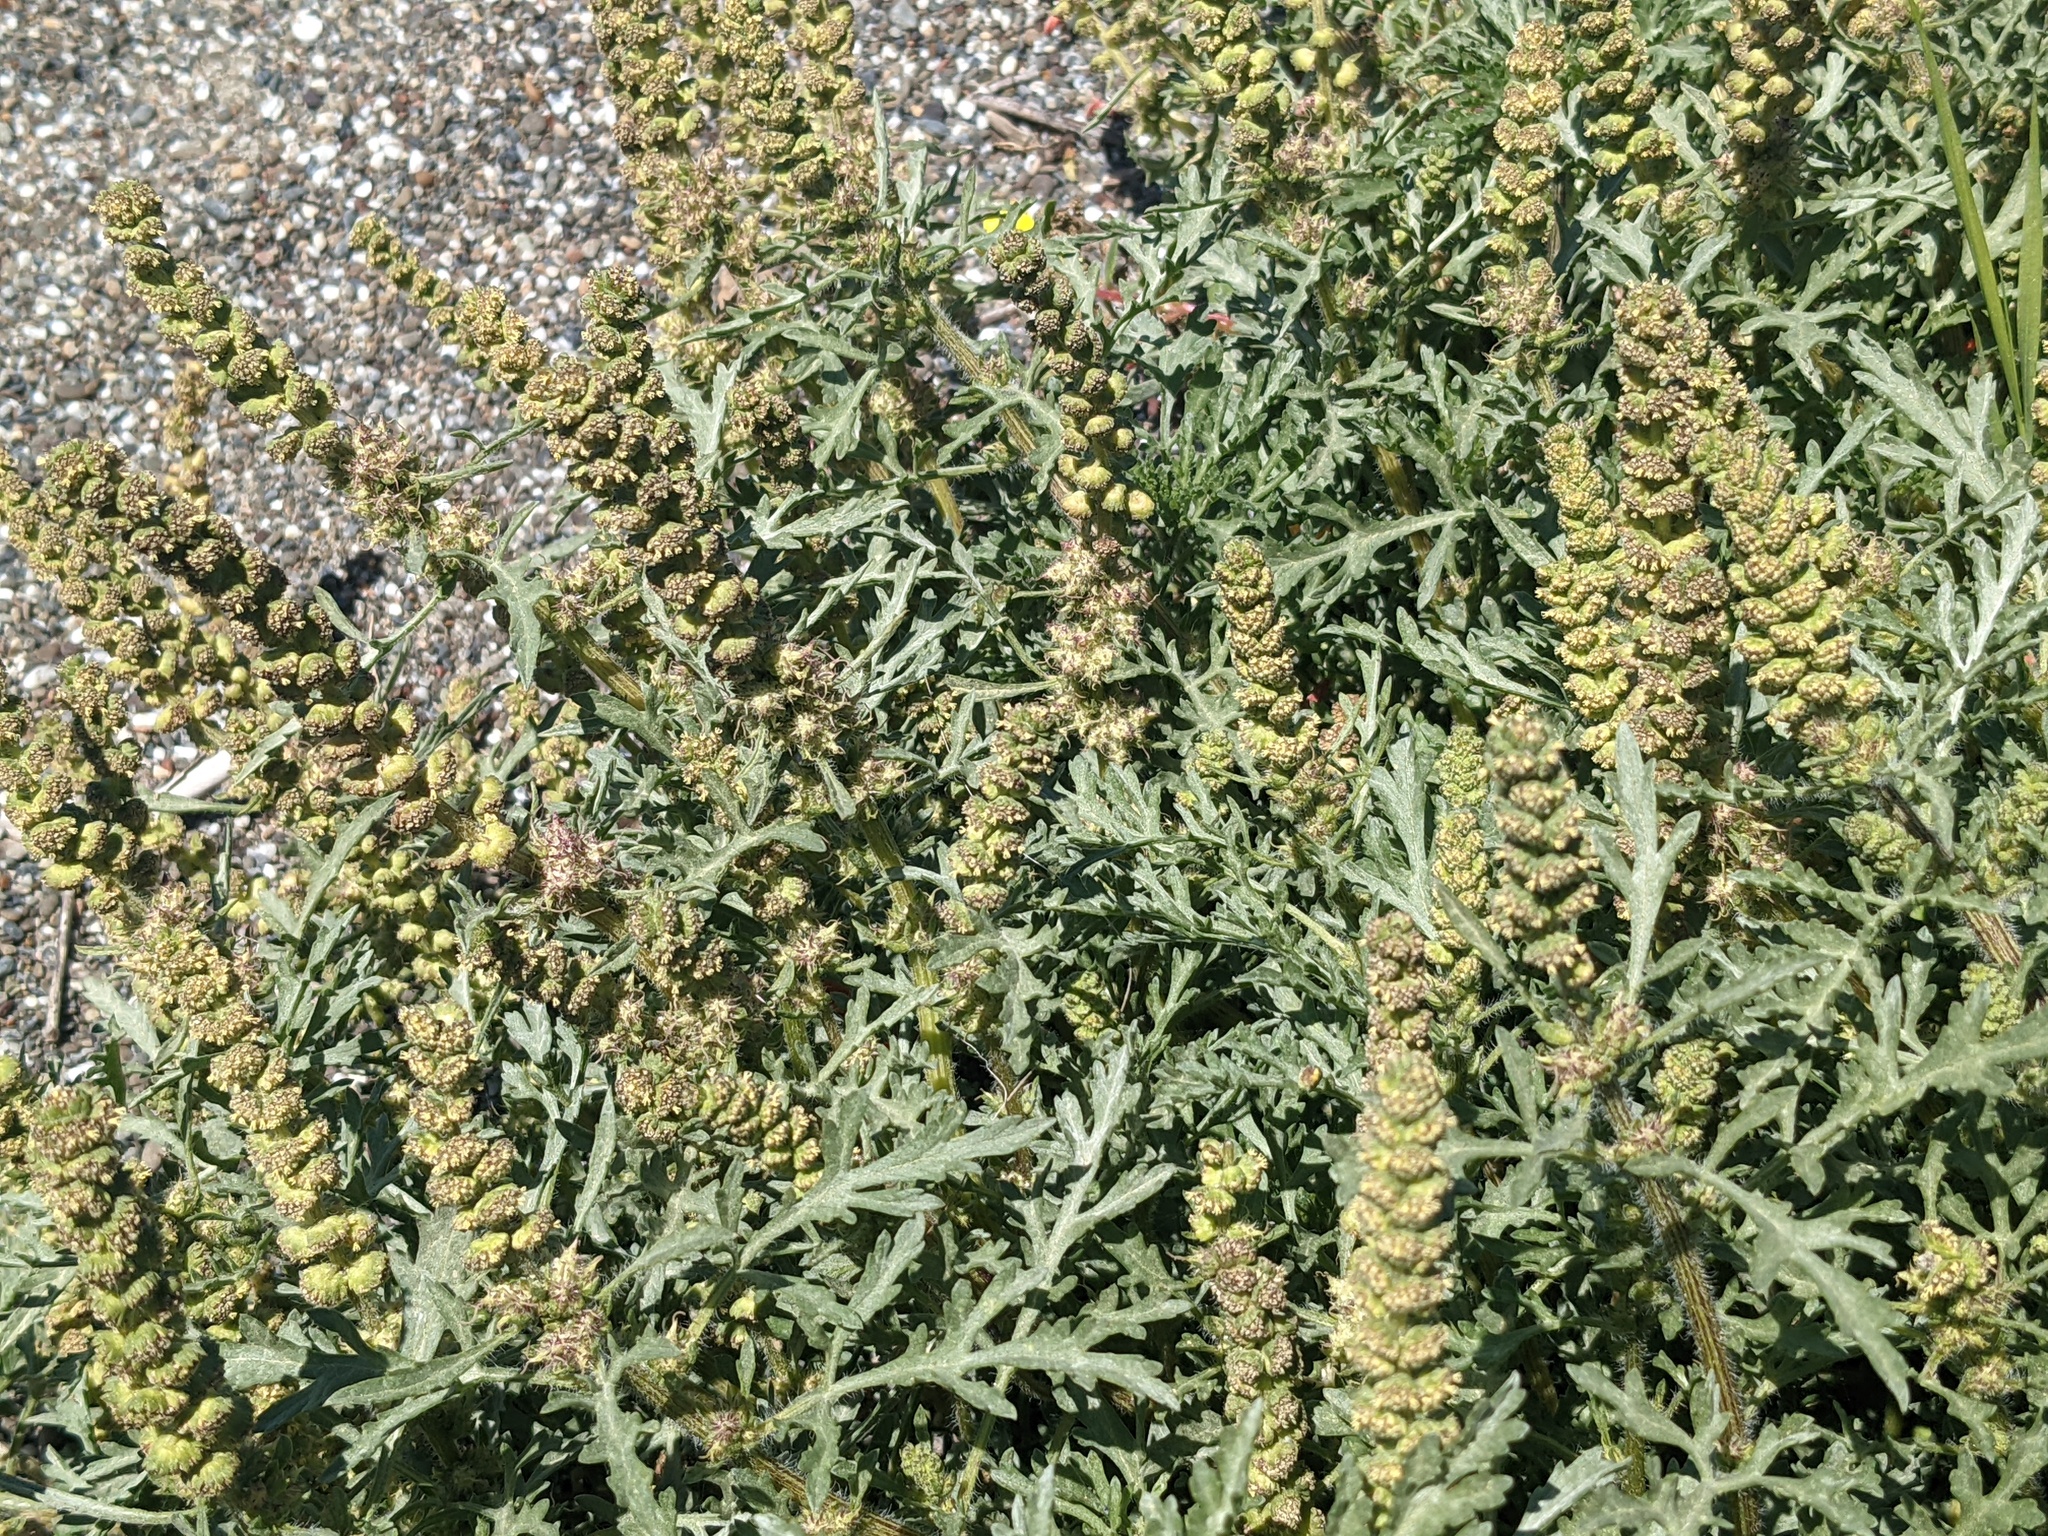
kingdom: Plantae
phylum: Tracheophyta
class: Magnoliopsida
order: Asterales
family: Asteraceae
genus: Ambrosia
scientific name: Ambrosia chamissonis
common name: Beachbur
